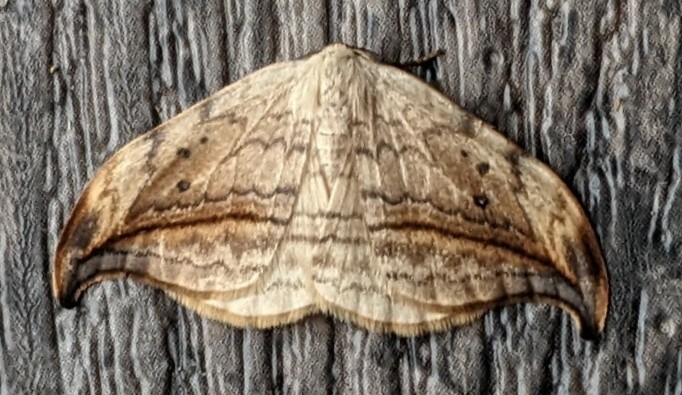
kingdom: Animalia
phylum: Arthropoda
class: Insecta
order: Lepidoptera
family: Drepanidae
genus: Drepana
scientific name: Drepana arcuata
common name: Arched hooktip moth
